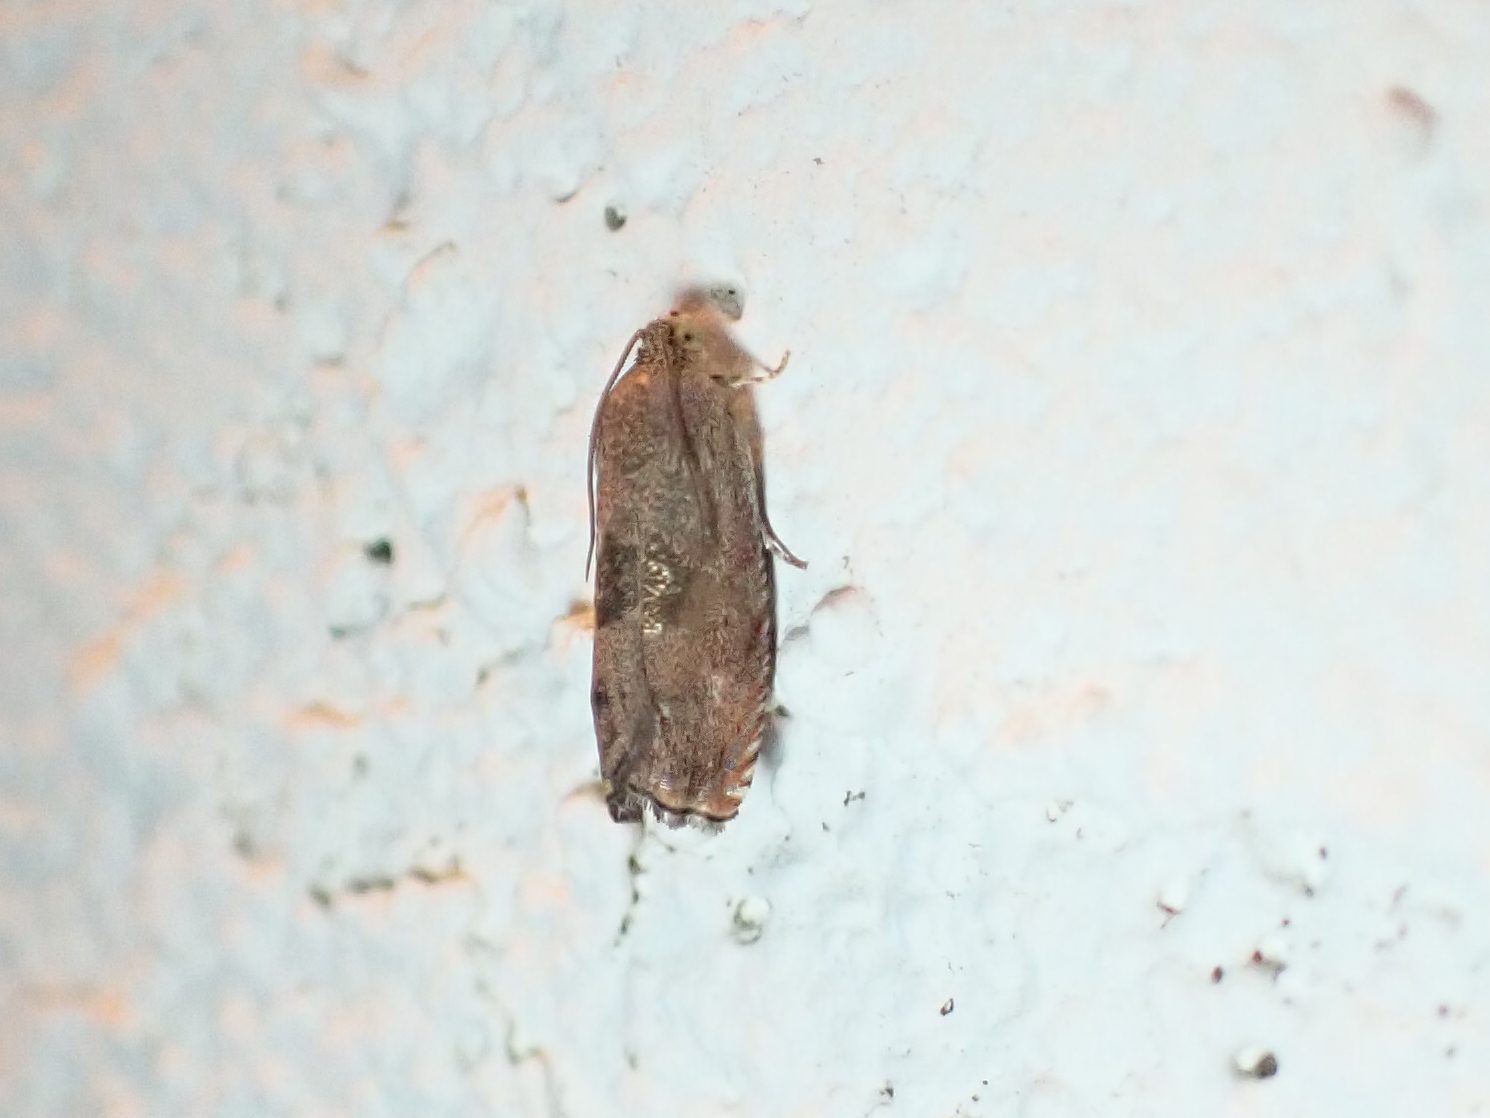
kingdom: Animalia
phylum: Arthropoda
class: Insecta
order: Lepidoptera
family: Tortricidae
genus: Cydia
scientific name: Cydia latiferreana
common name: Filbertworm moth
